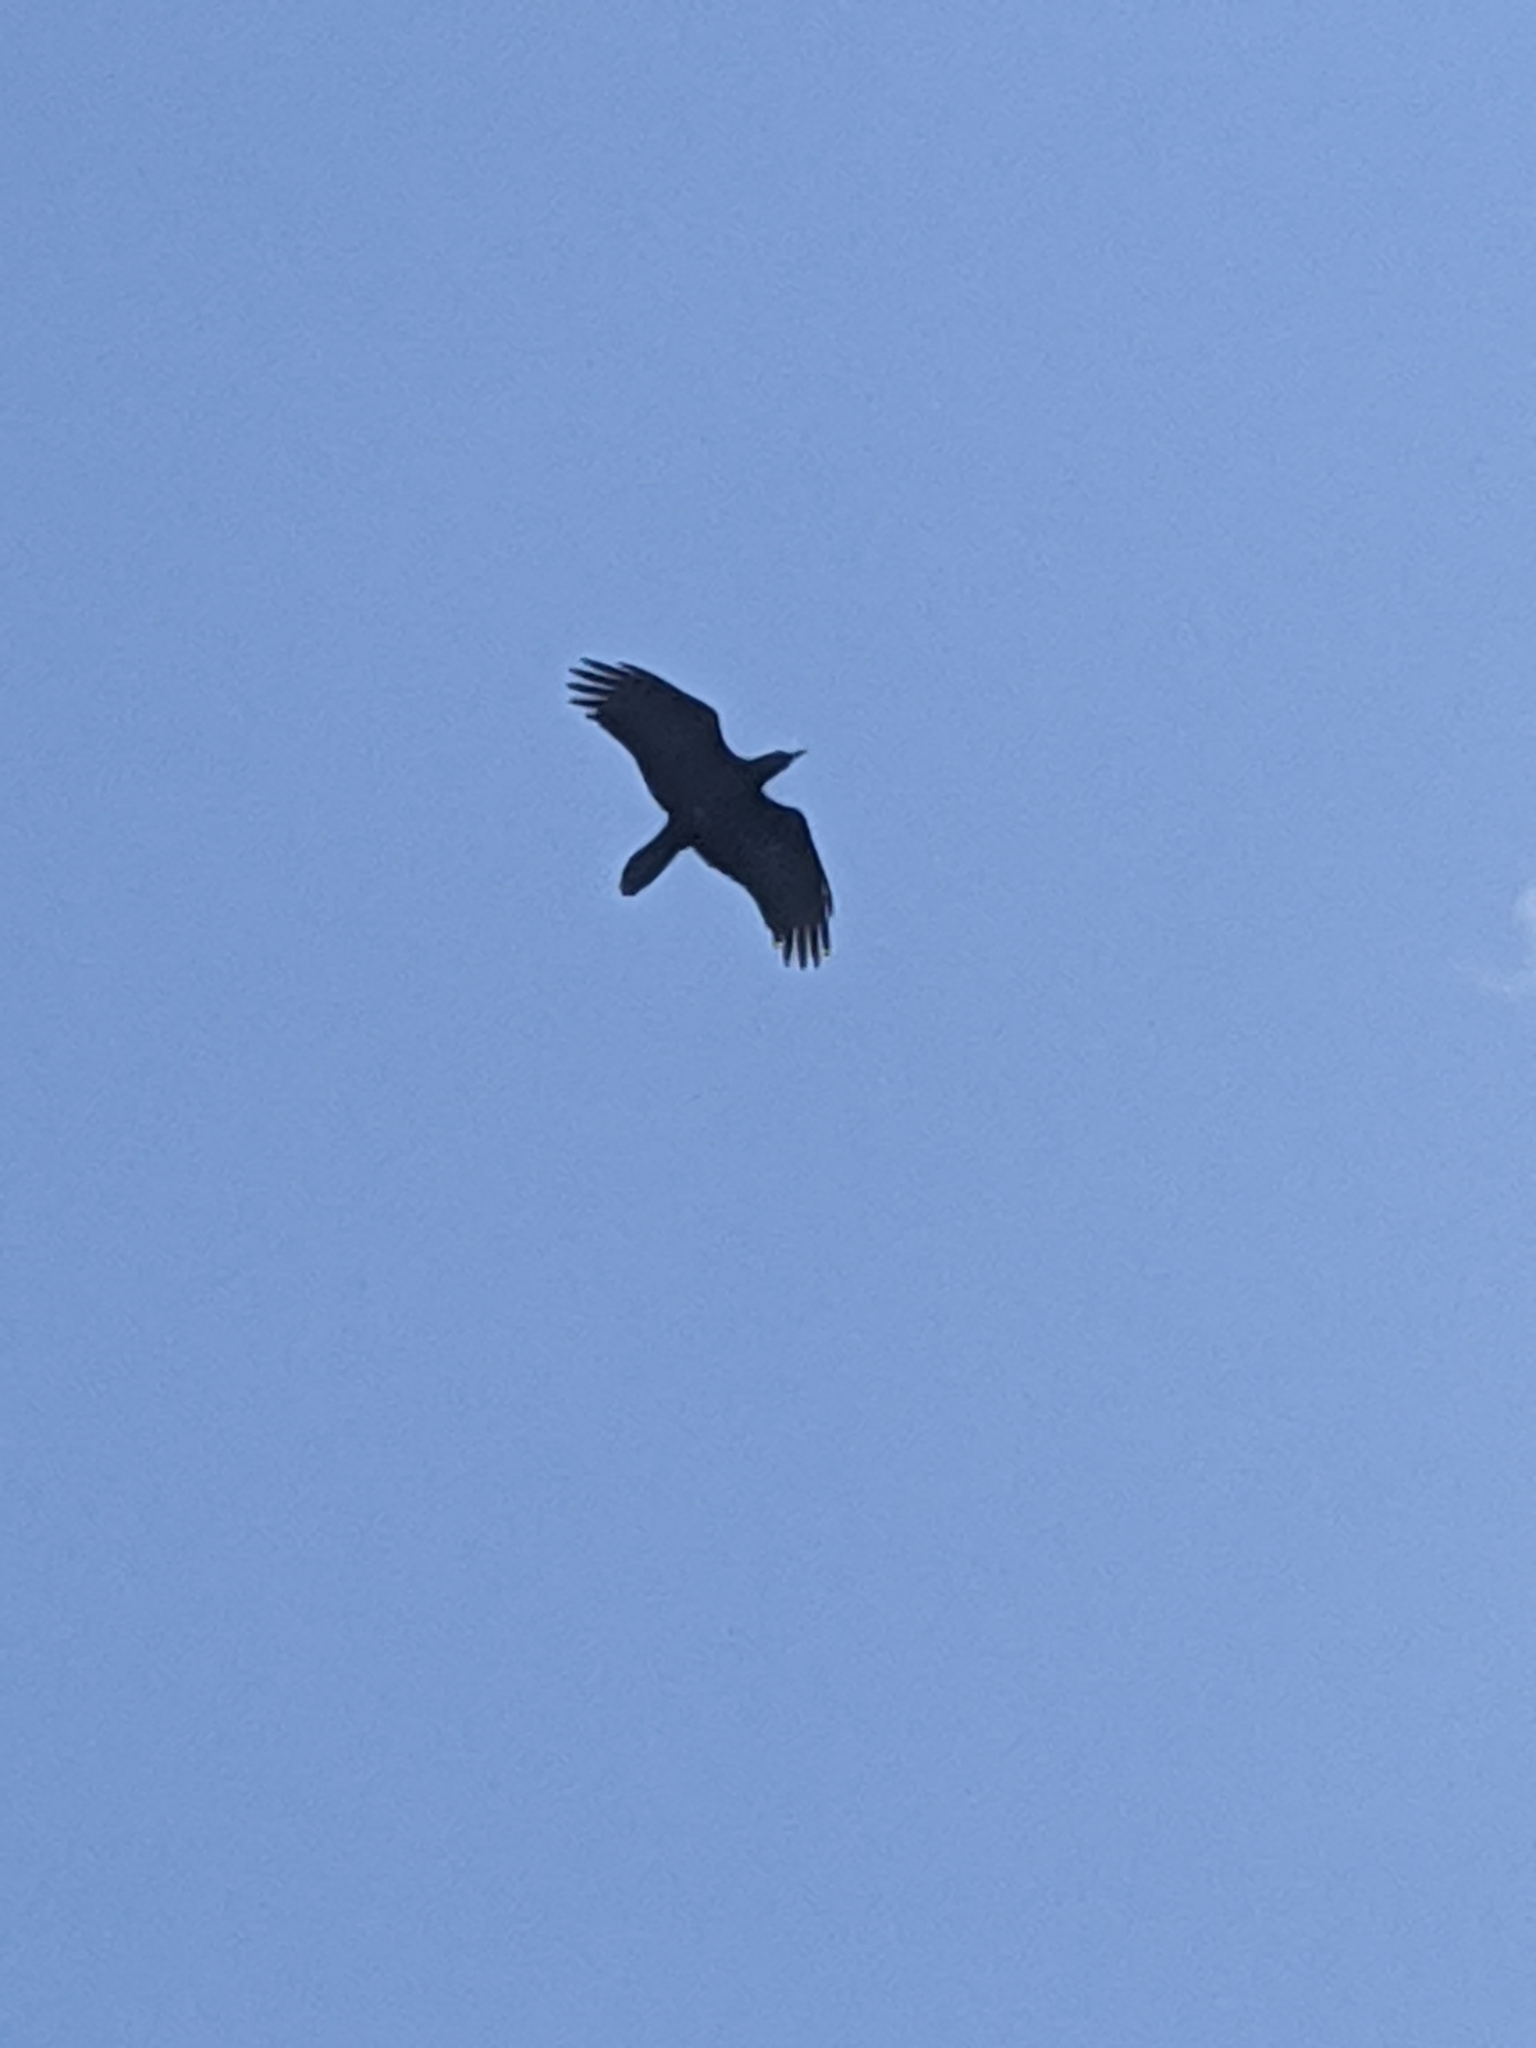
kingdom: Animalia
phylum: Chordata
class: Aves
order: Passeriformes
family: Corvidae
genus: Corvus
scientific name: Corvus corax
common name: Common raven
